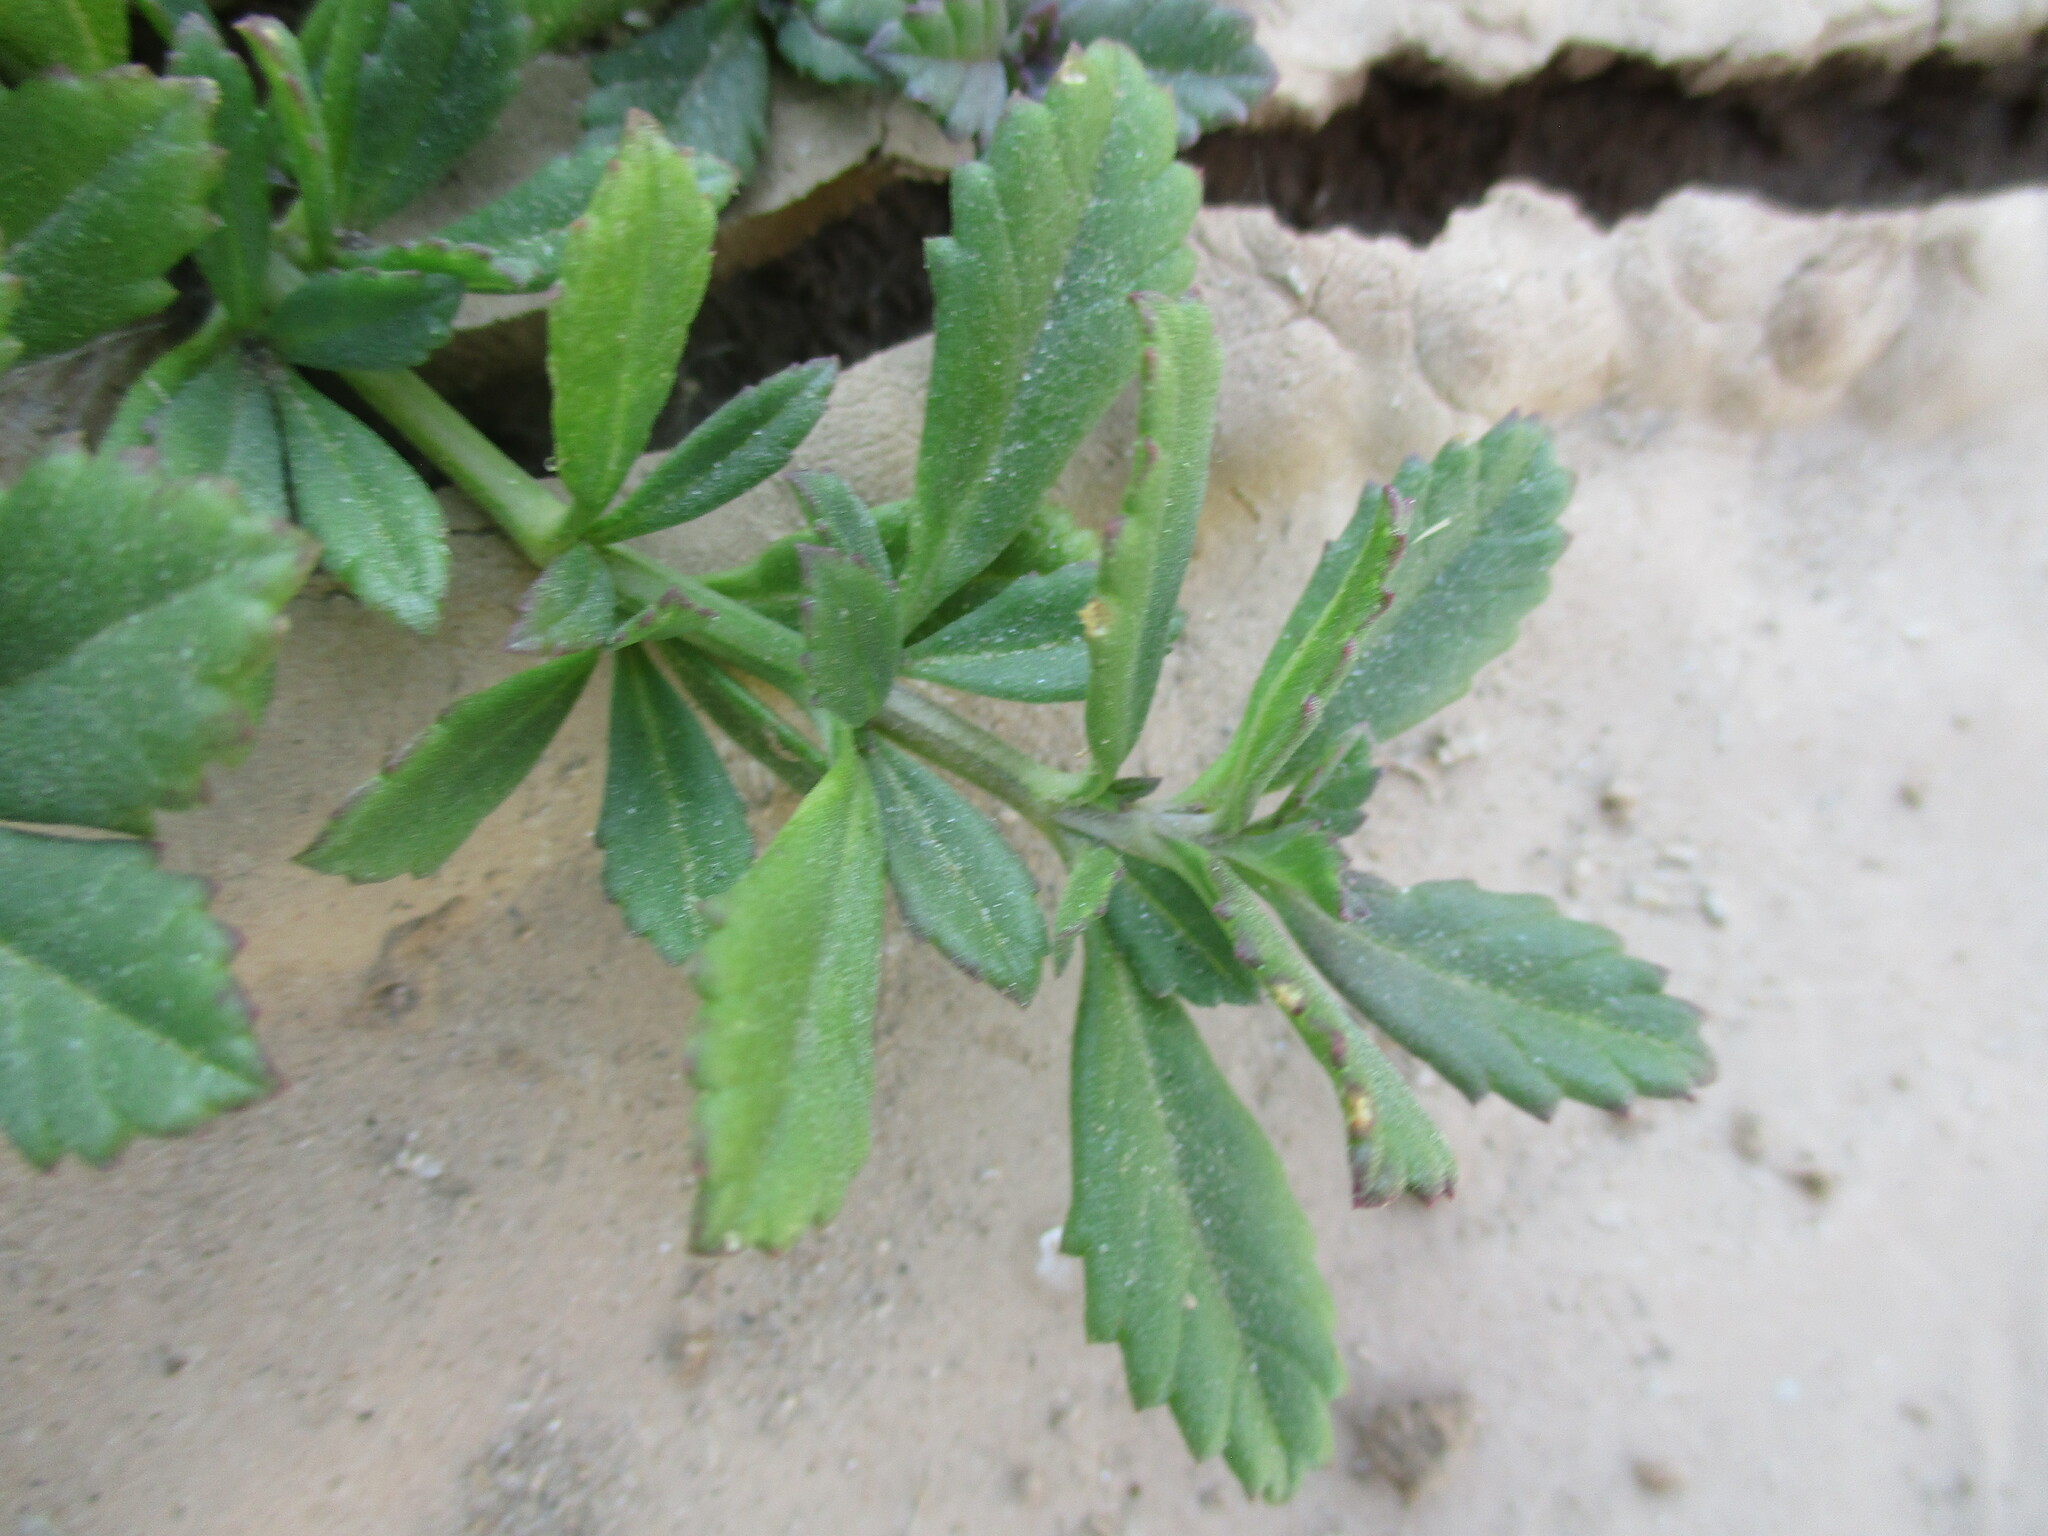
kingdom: Plantae
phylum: Tracheophyta
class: Magnoliopsida
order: Lamiales
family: Verbenaceae
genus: Phyla
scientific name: Phyla nodiflora
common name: Frogfruit
